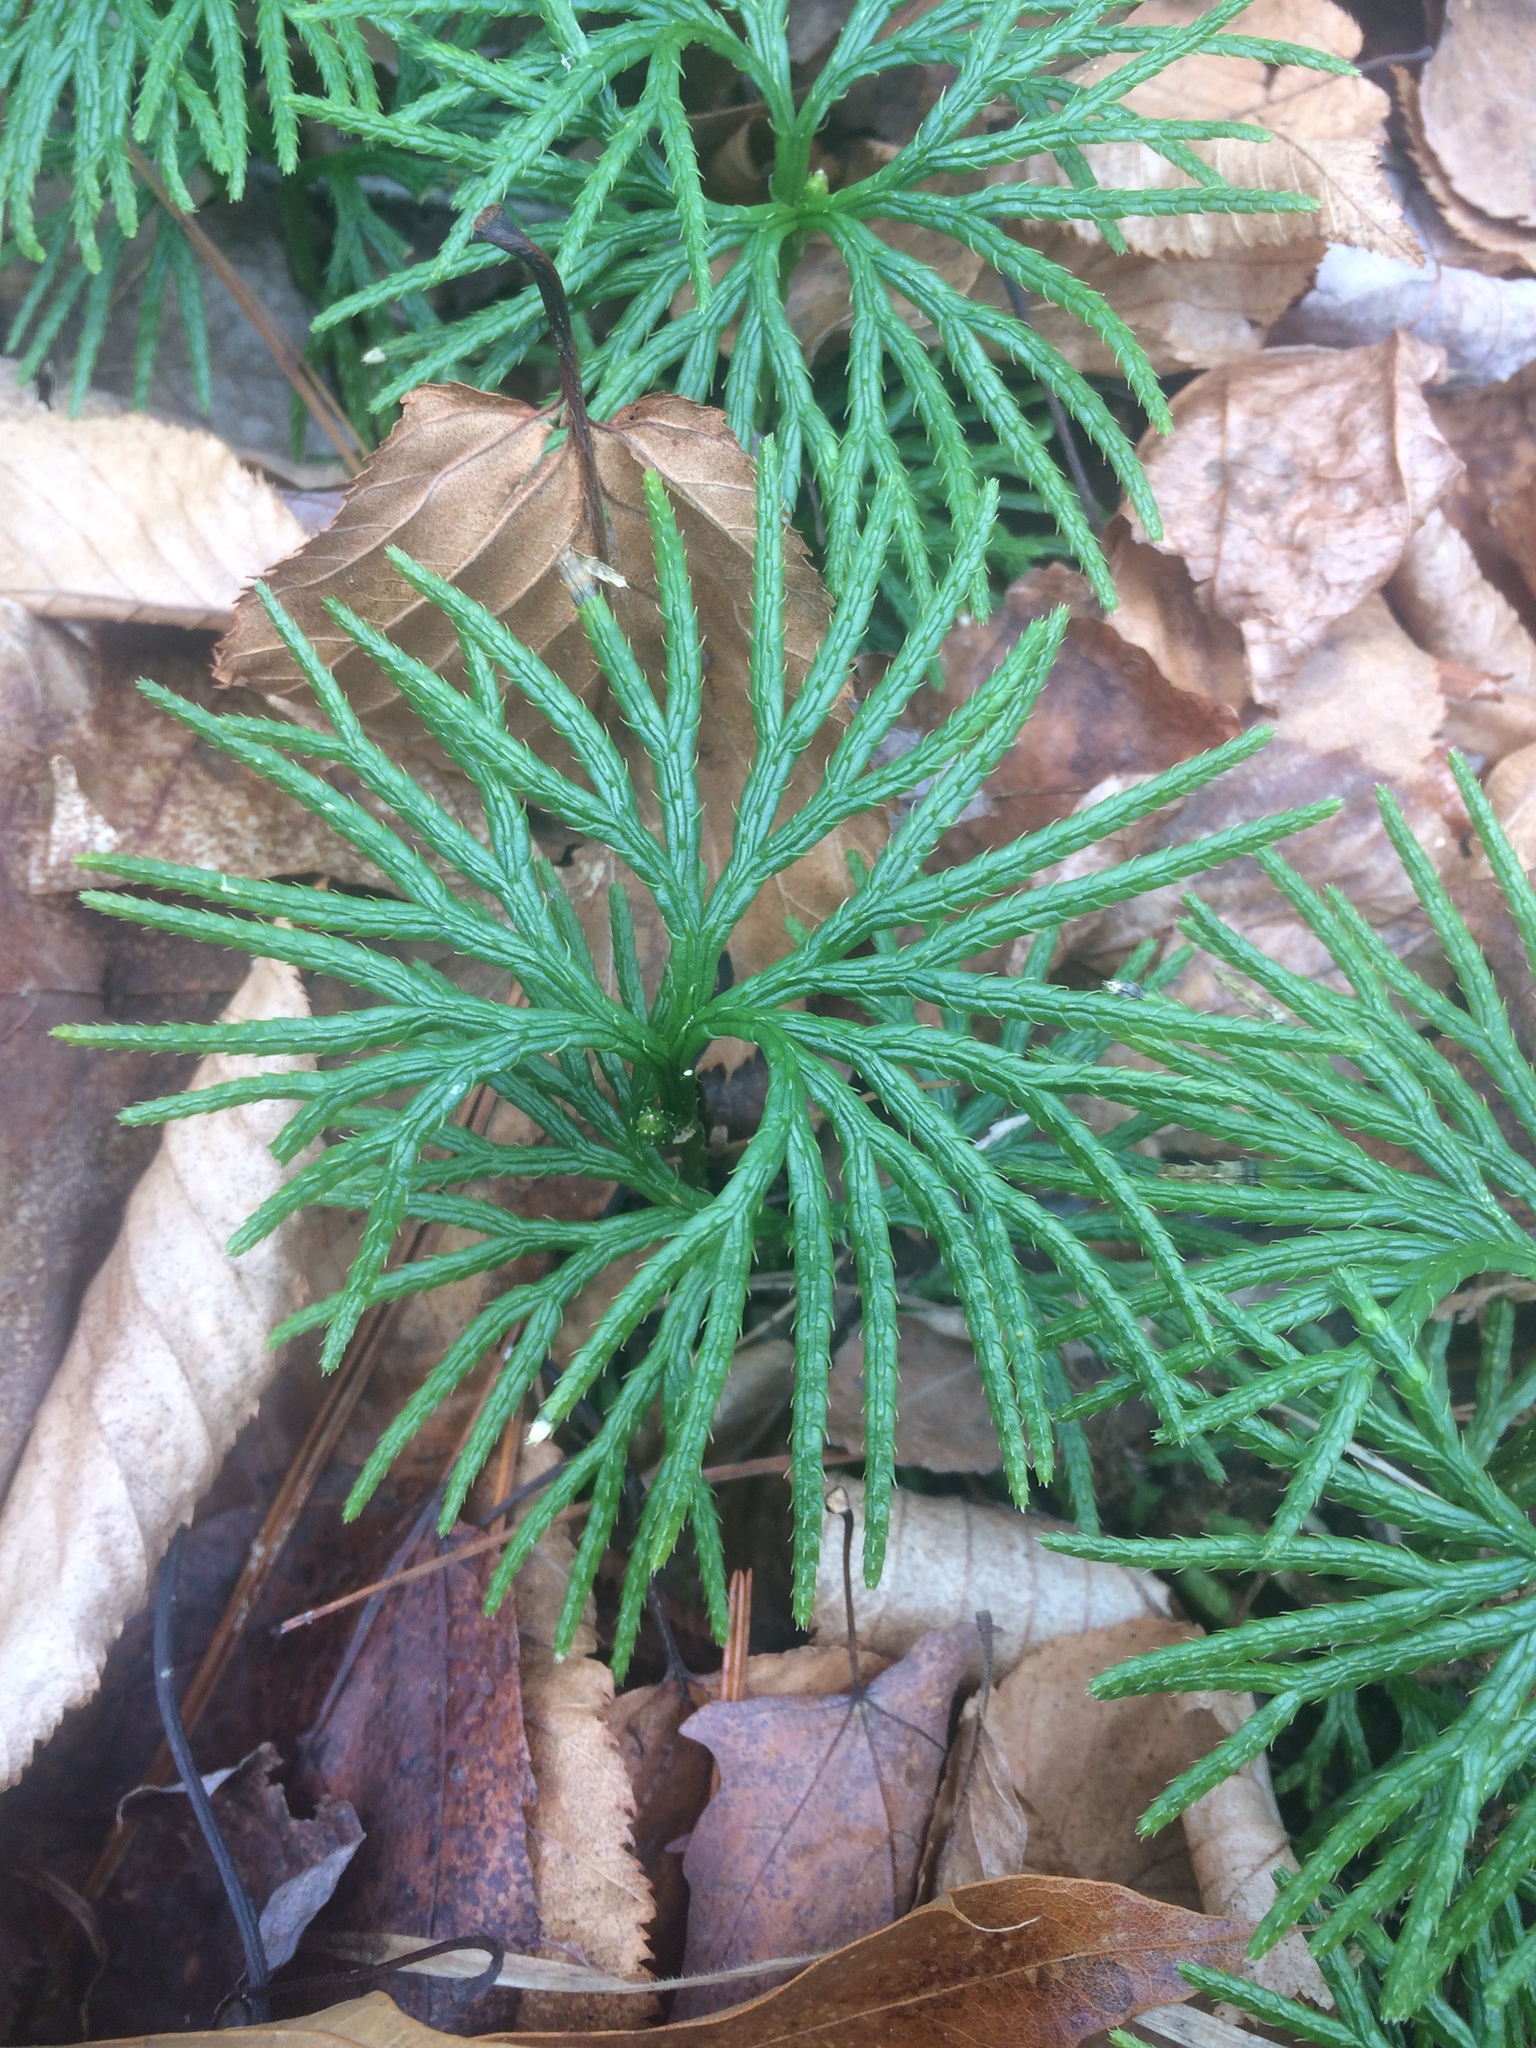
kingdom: Plantae
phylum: Tracheophyta
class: Lycopodiopsida
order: Lycopodiales
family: Lycopodiaceae
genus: Diphasiastrum
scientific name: Diphasiastrum digitatum
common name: Southern running-pine
